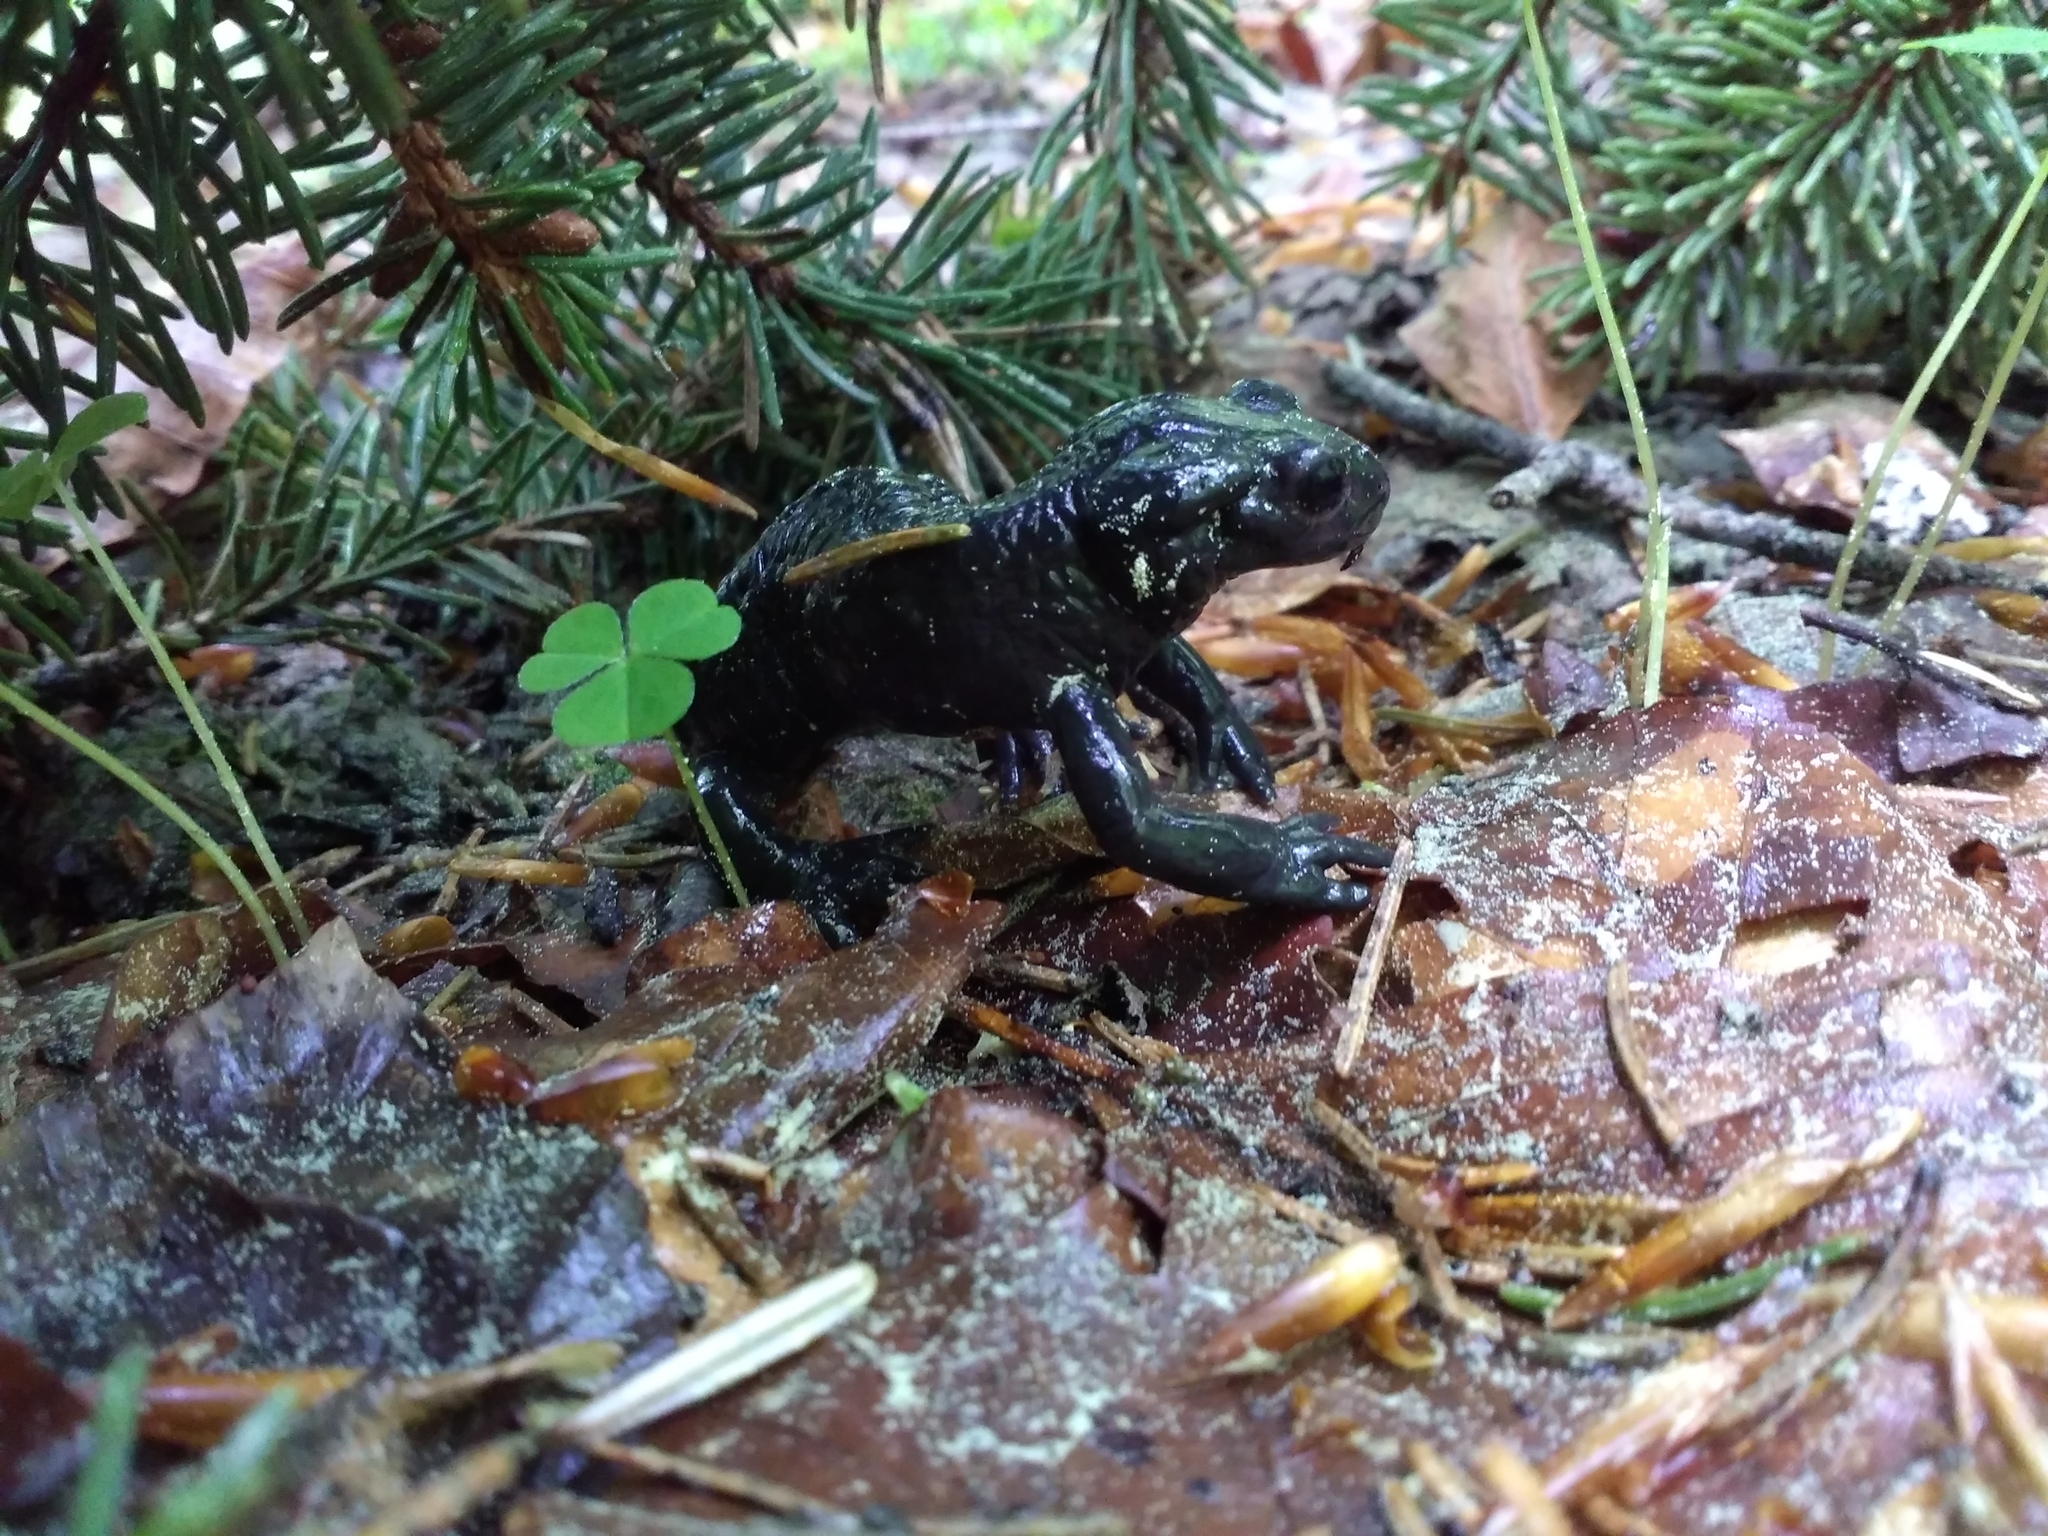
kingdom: Animalia
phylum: Chordata
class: Amphibia
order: Caudata
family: Salamandridae
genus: Salamandra
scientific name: Salamandra atra
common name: Alpine salamander
